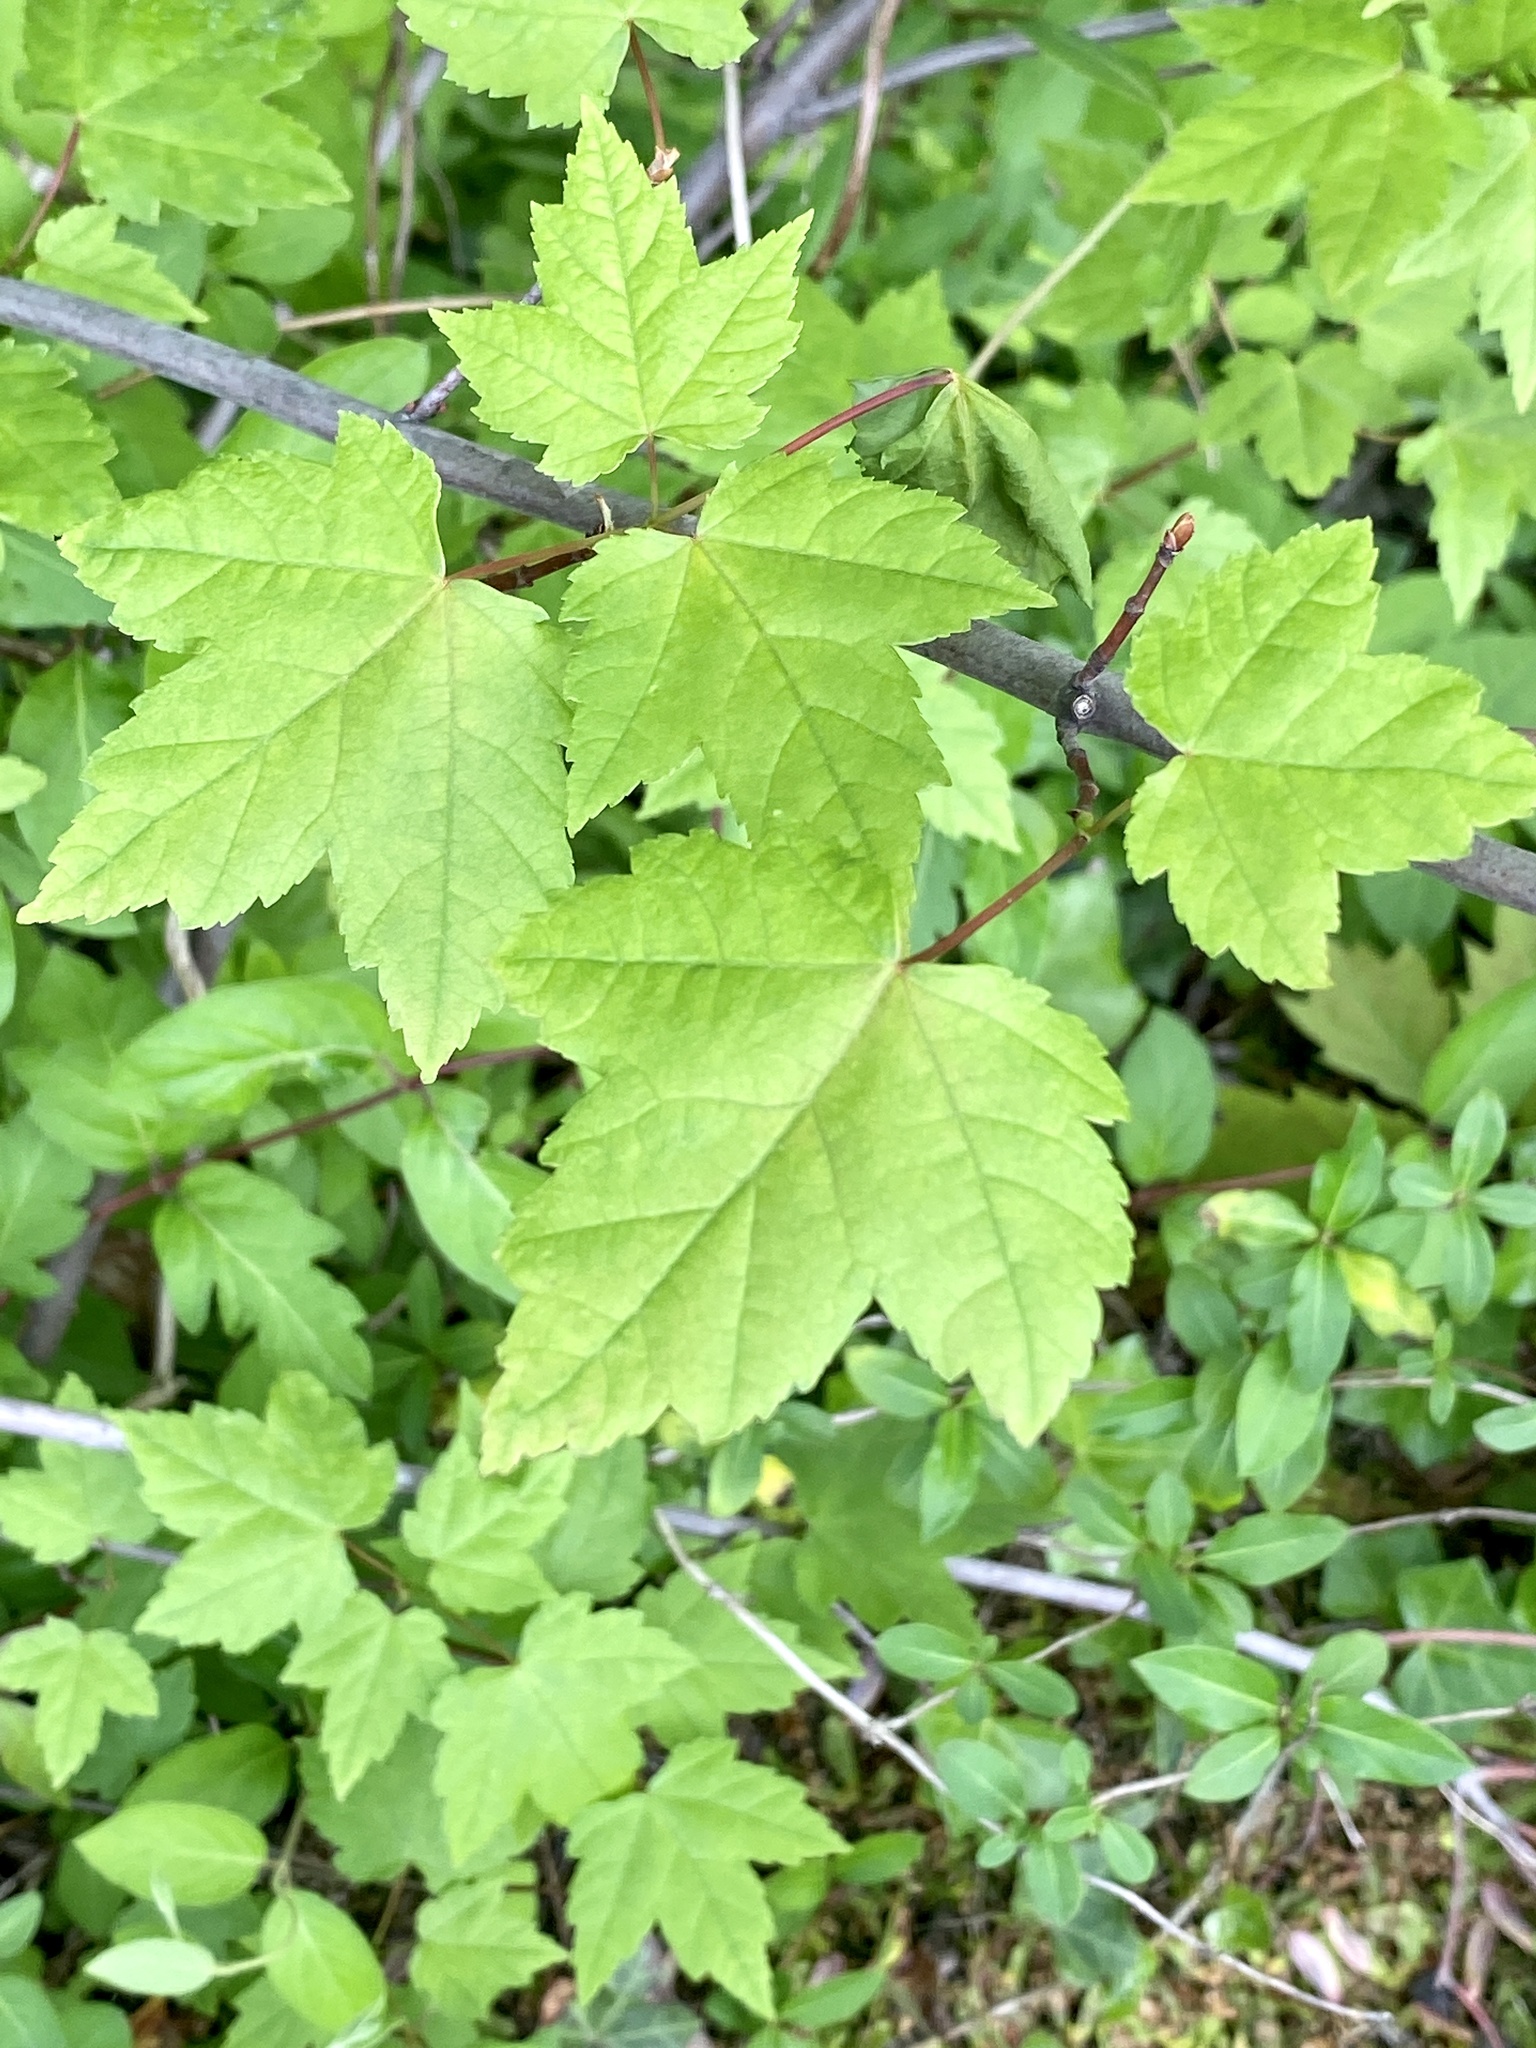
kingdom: Plantae
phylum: Tracheophyta
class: Magnoliopsida
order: Sapindales
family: Sapindaceae
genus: Acer
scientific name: Acer rubrum
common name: Red maple
